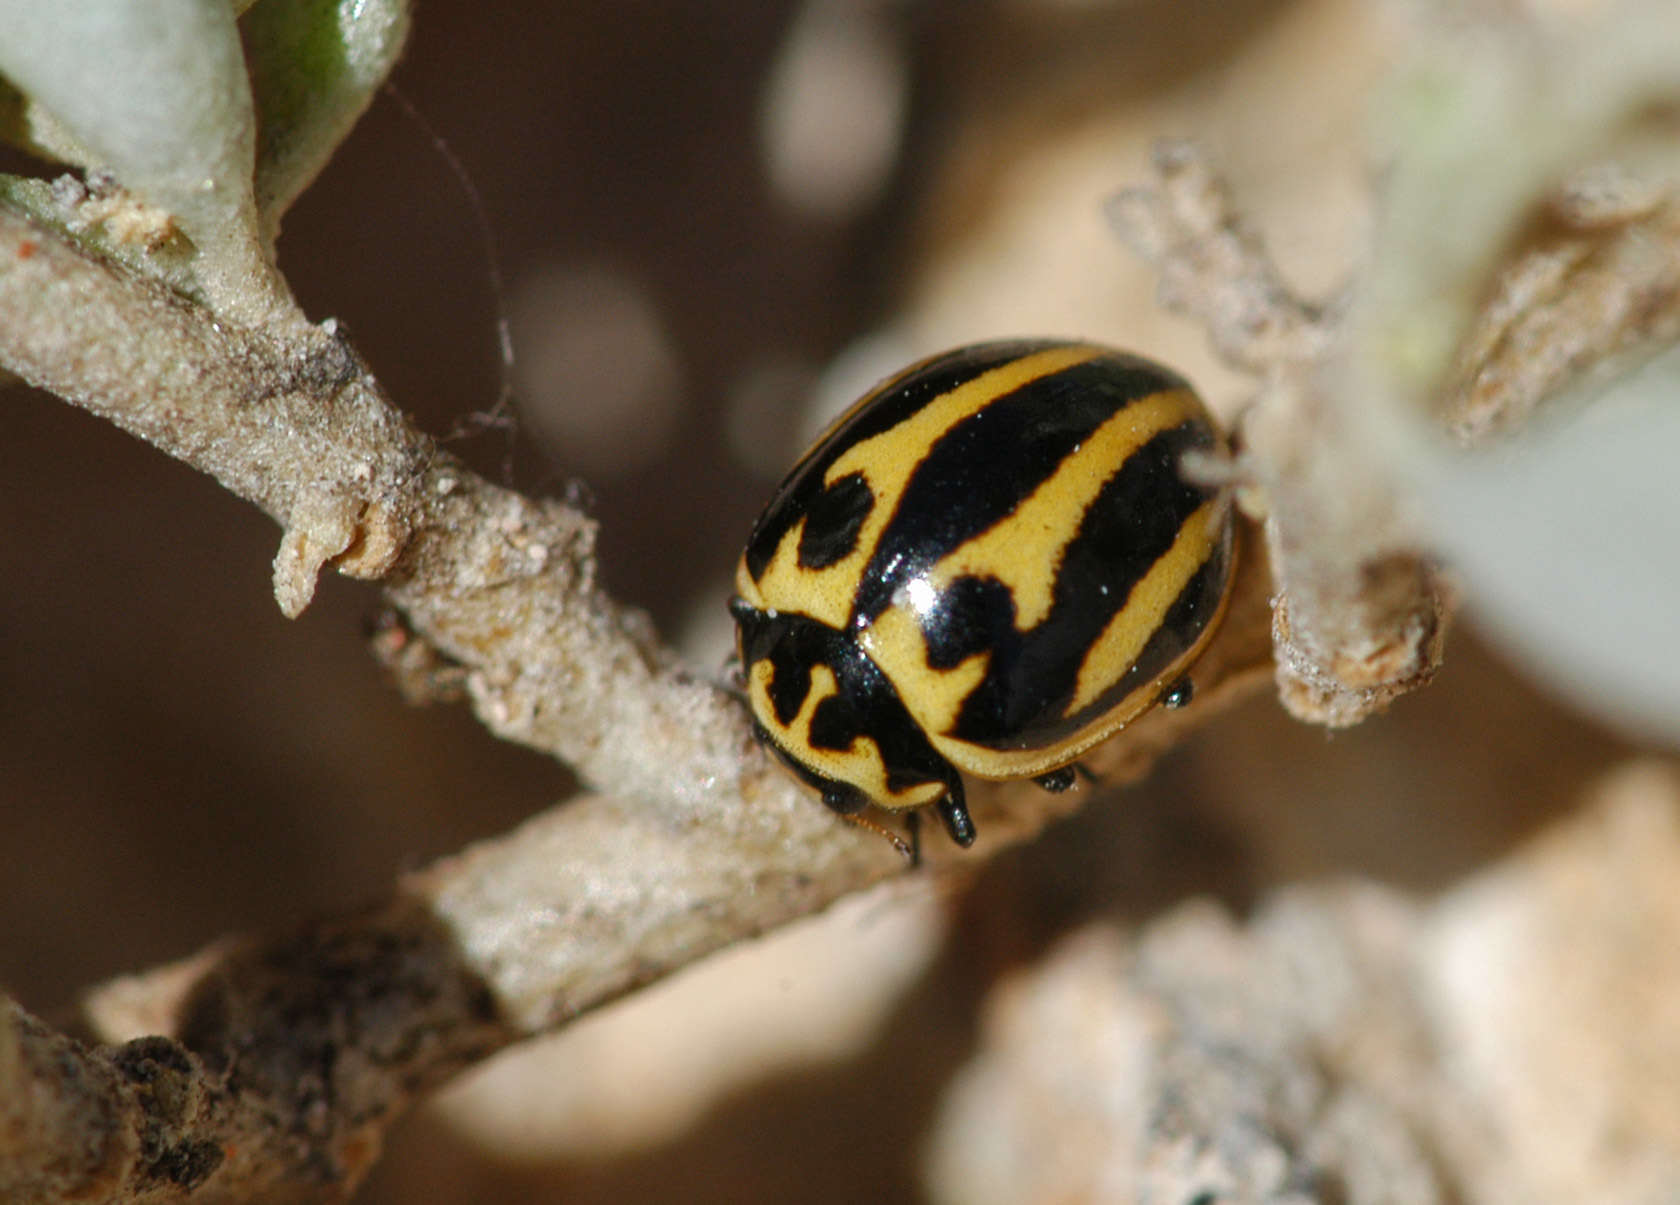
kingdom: Animalia
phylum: Arthropoda
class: Insecta
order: Coleoptera
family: Coccinellidae
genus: Micraspis
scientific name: Micraspis
